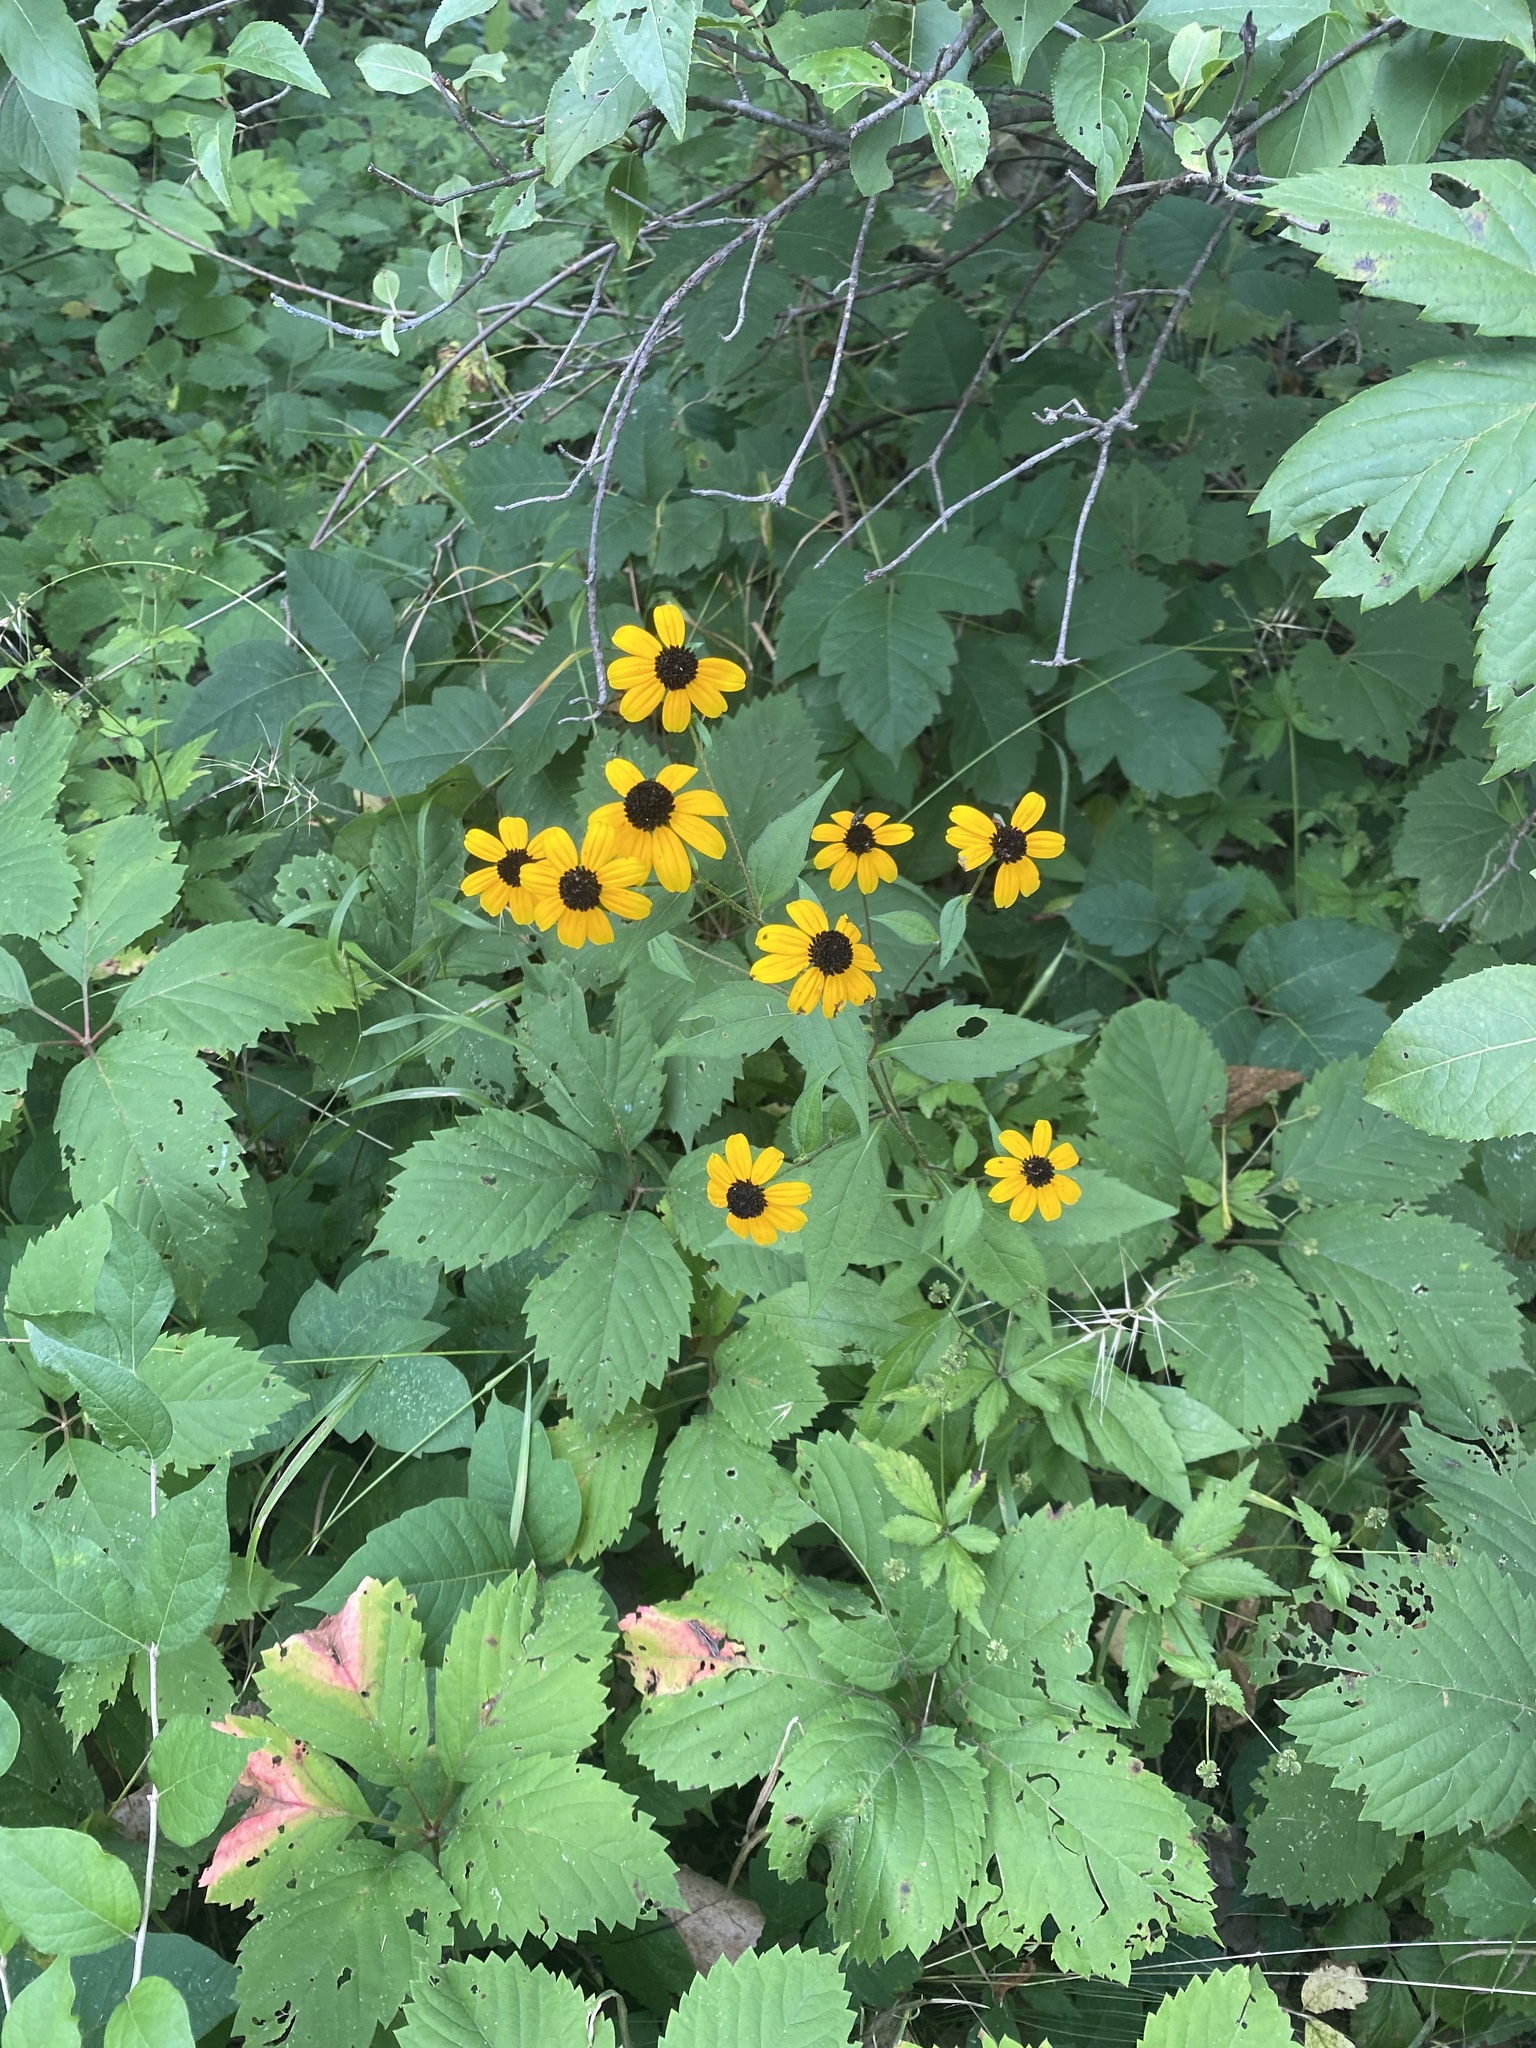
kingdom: Plantae
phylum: Tracheophyta
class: Magnoliopsida
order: Asterales
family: Asteraceae
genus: Rudbeckia
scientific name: Rudbeckia triloba
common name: Thin-leaved coneflower
